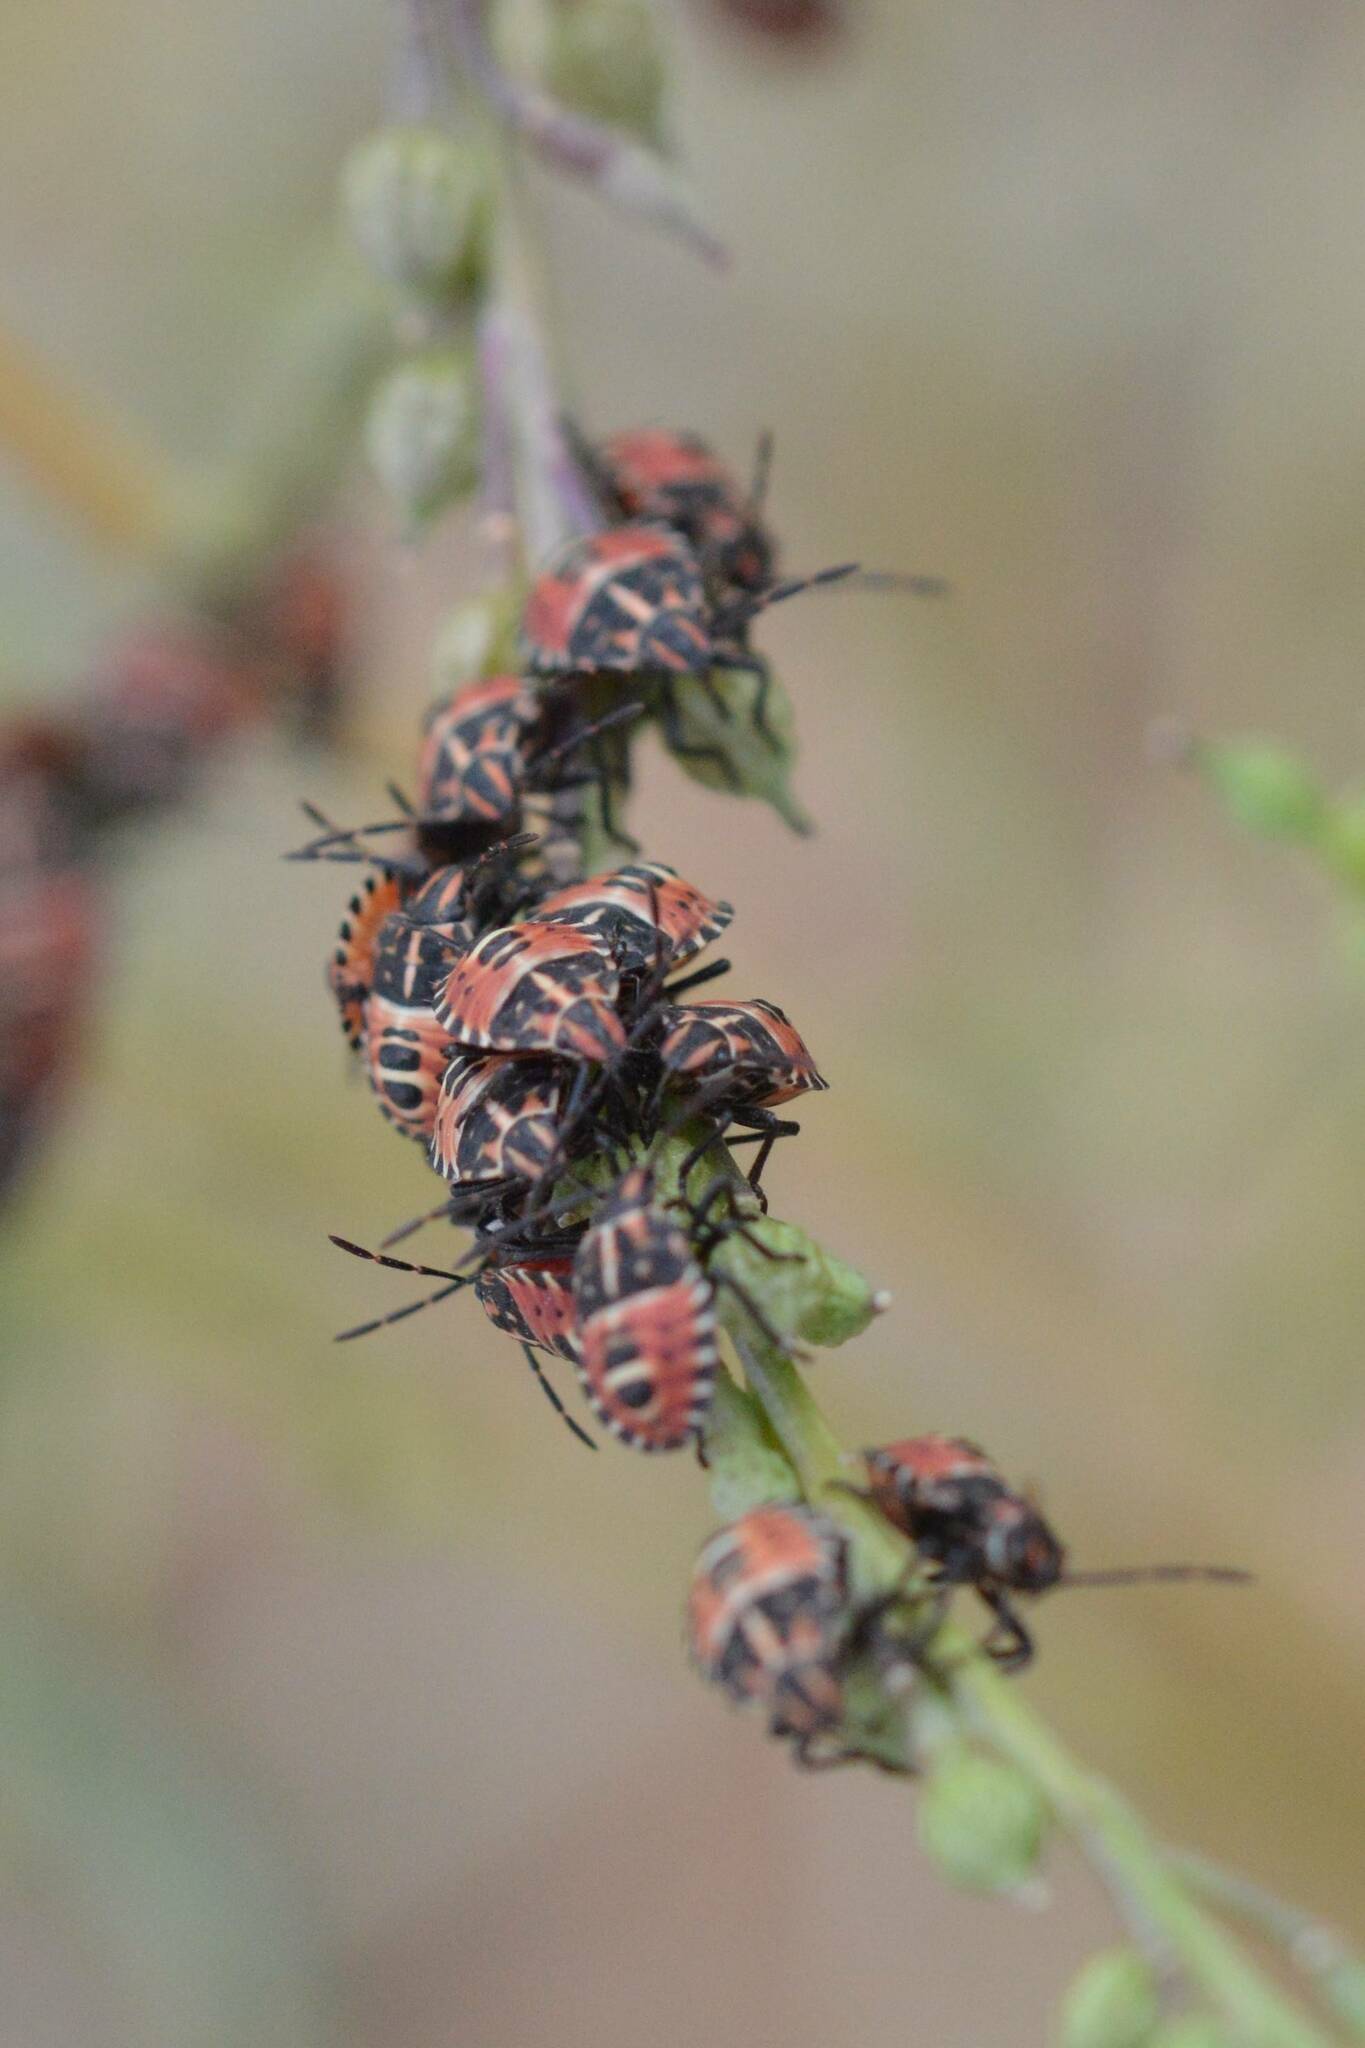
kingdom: Animalia
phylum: Arthropoda
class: Insecta
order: Hemiptera
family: Miridae
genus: Orthops
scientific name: Orthops kalmii
